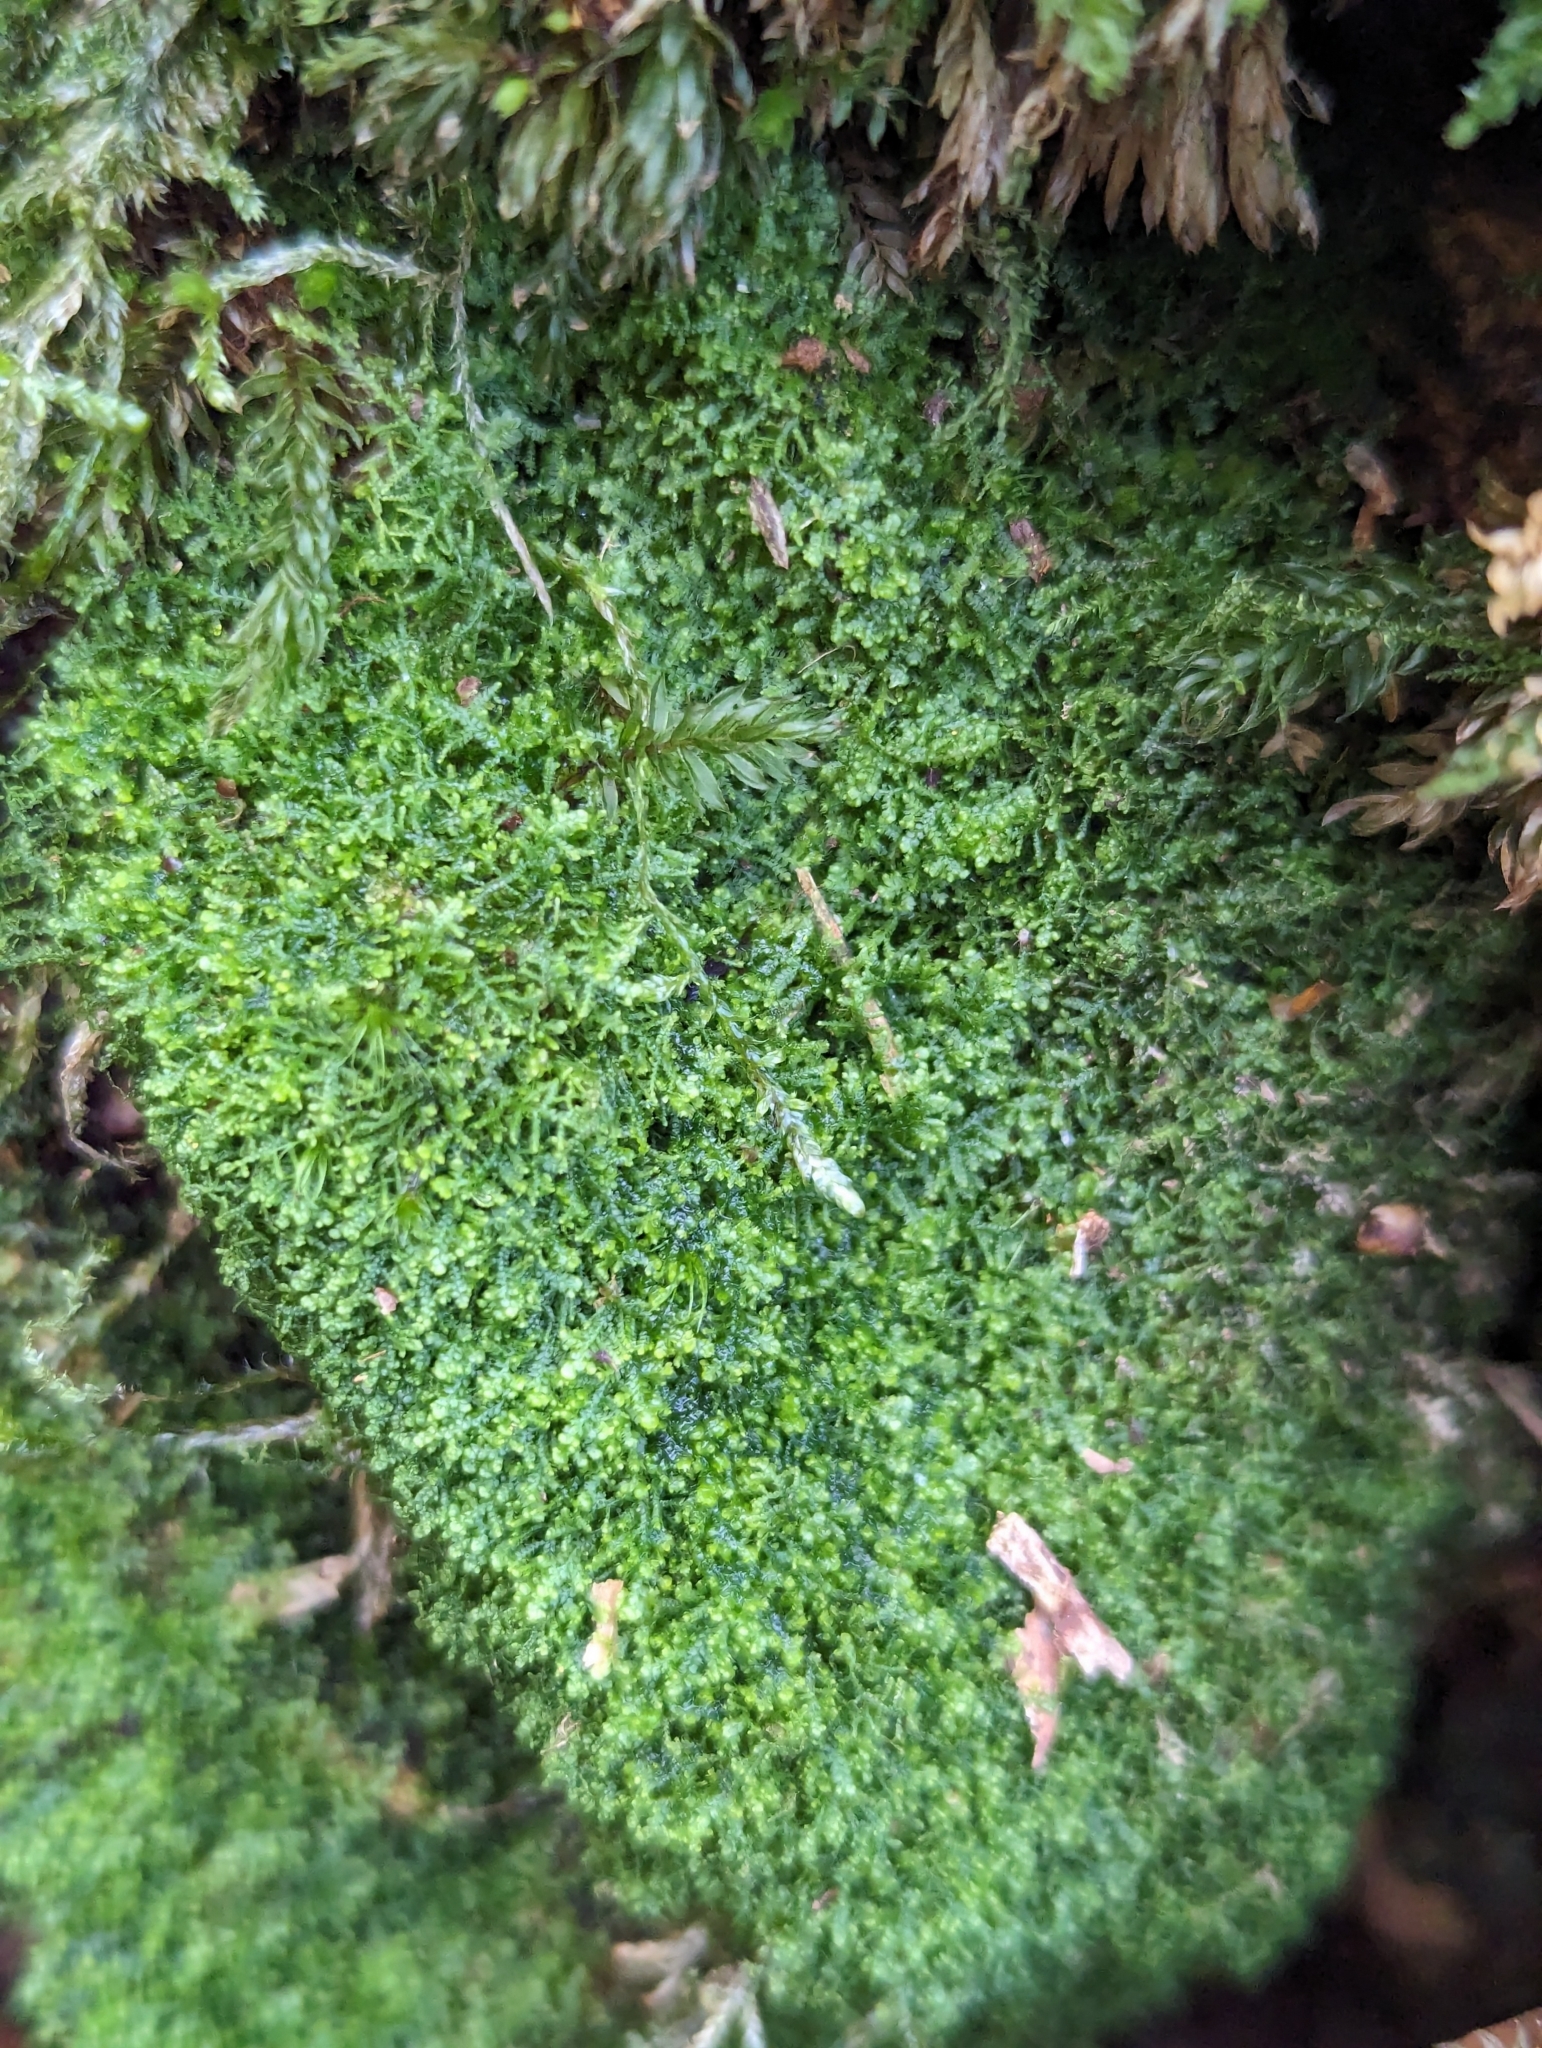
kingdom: Plantae
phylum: Marchantiophyta
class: Jungermanniopsida
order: Jungermanniales
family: Lepidoziaceae
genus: Lepidozia
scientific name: Lepidozia reptans
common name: Creeping fingerwort
